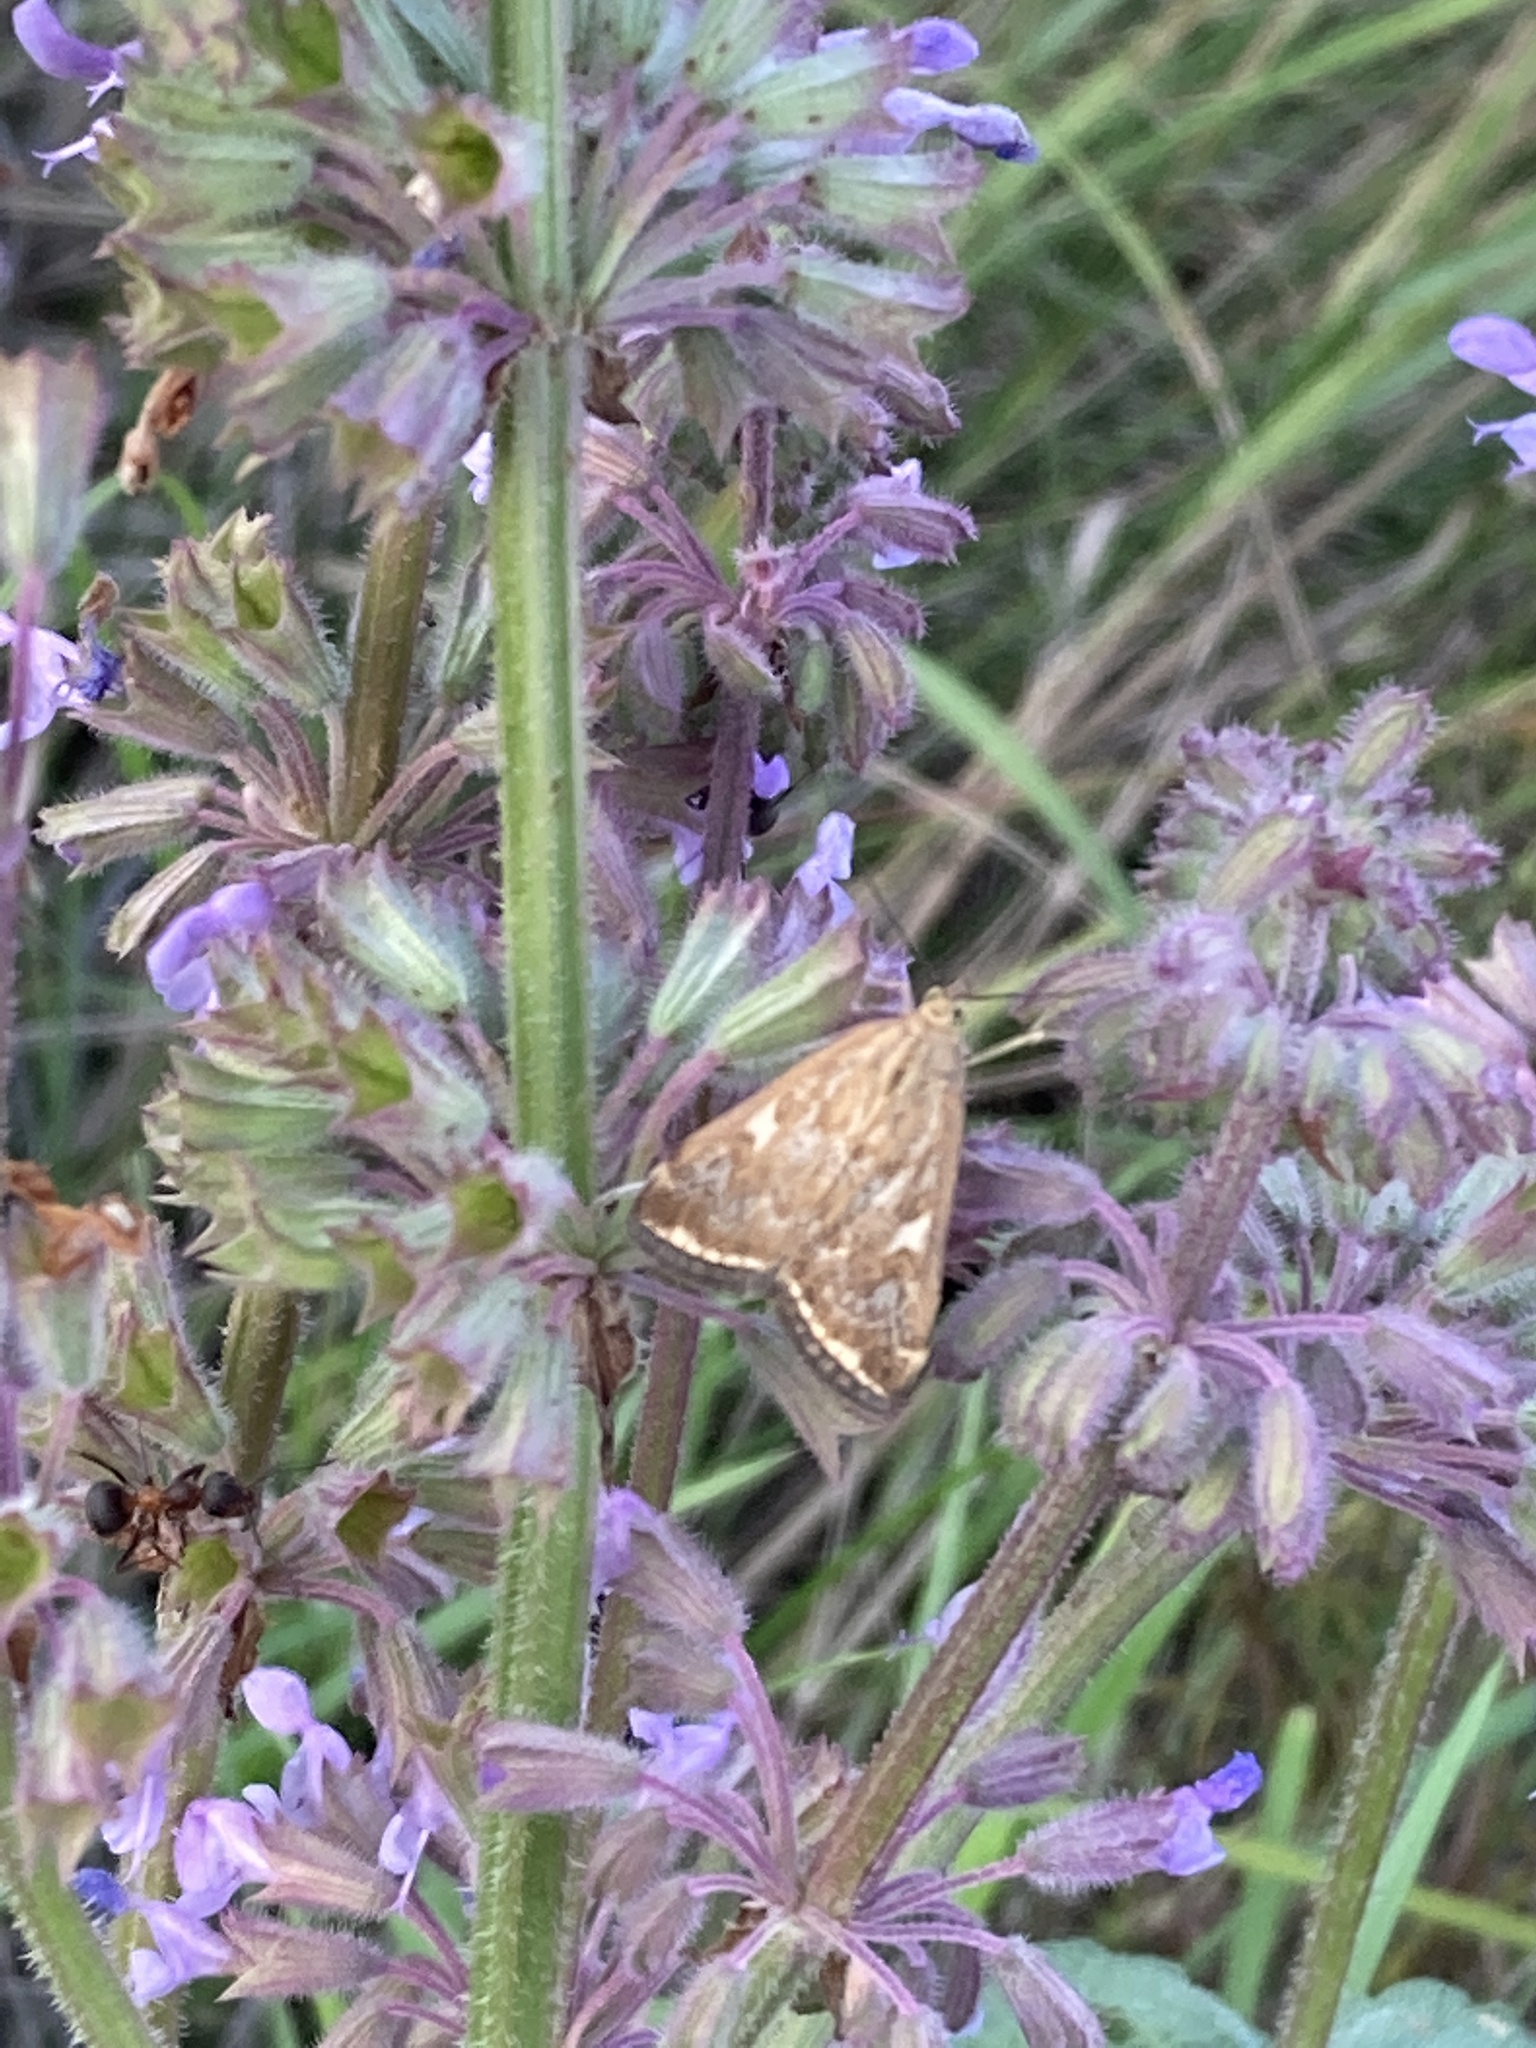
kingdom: Animalia
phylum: Arthropoda
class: Insecta
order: Lepidoptera
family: Crambidae
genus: Loxostege
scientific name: Loxostege sticticalis
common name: Crambid moth
